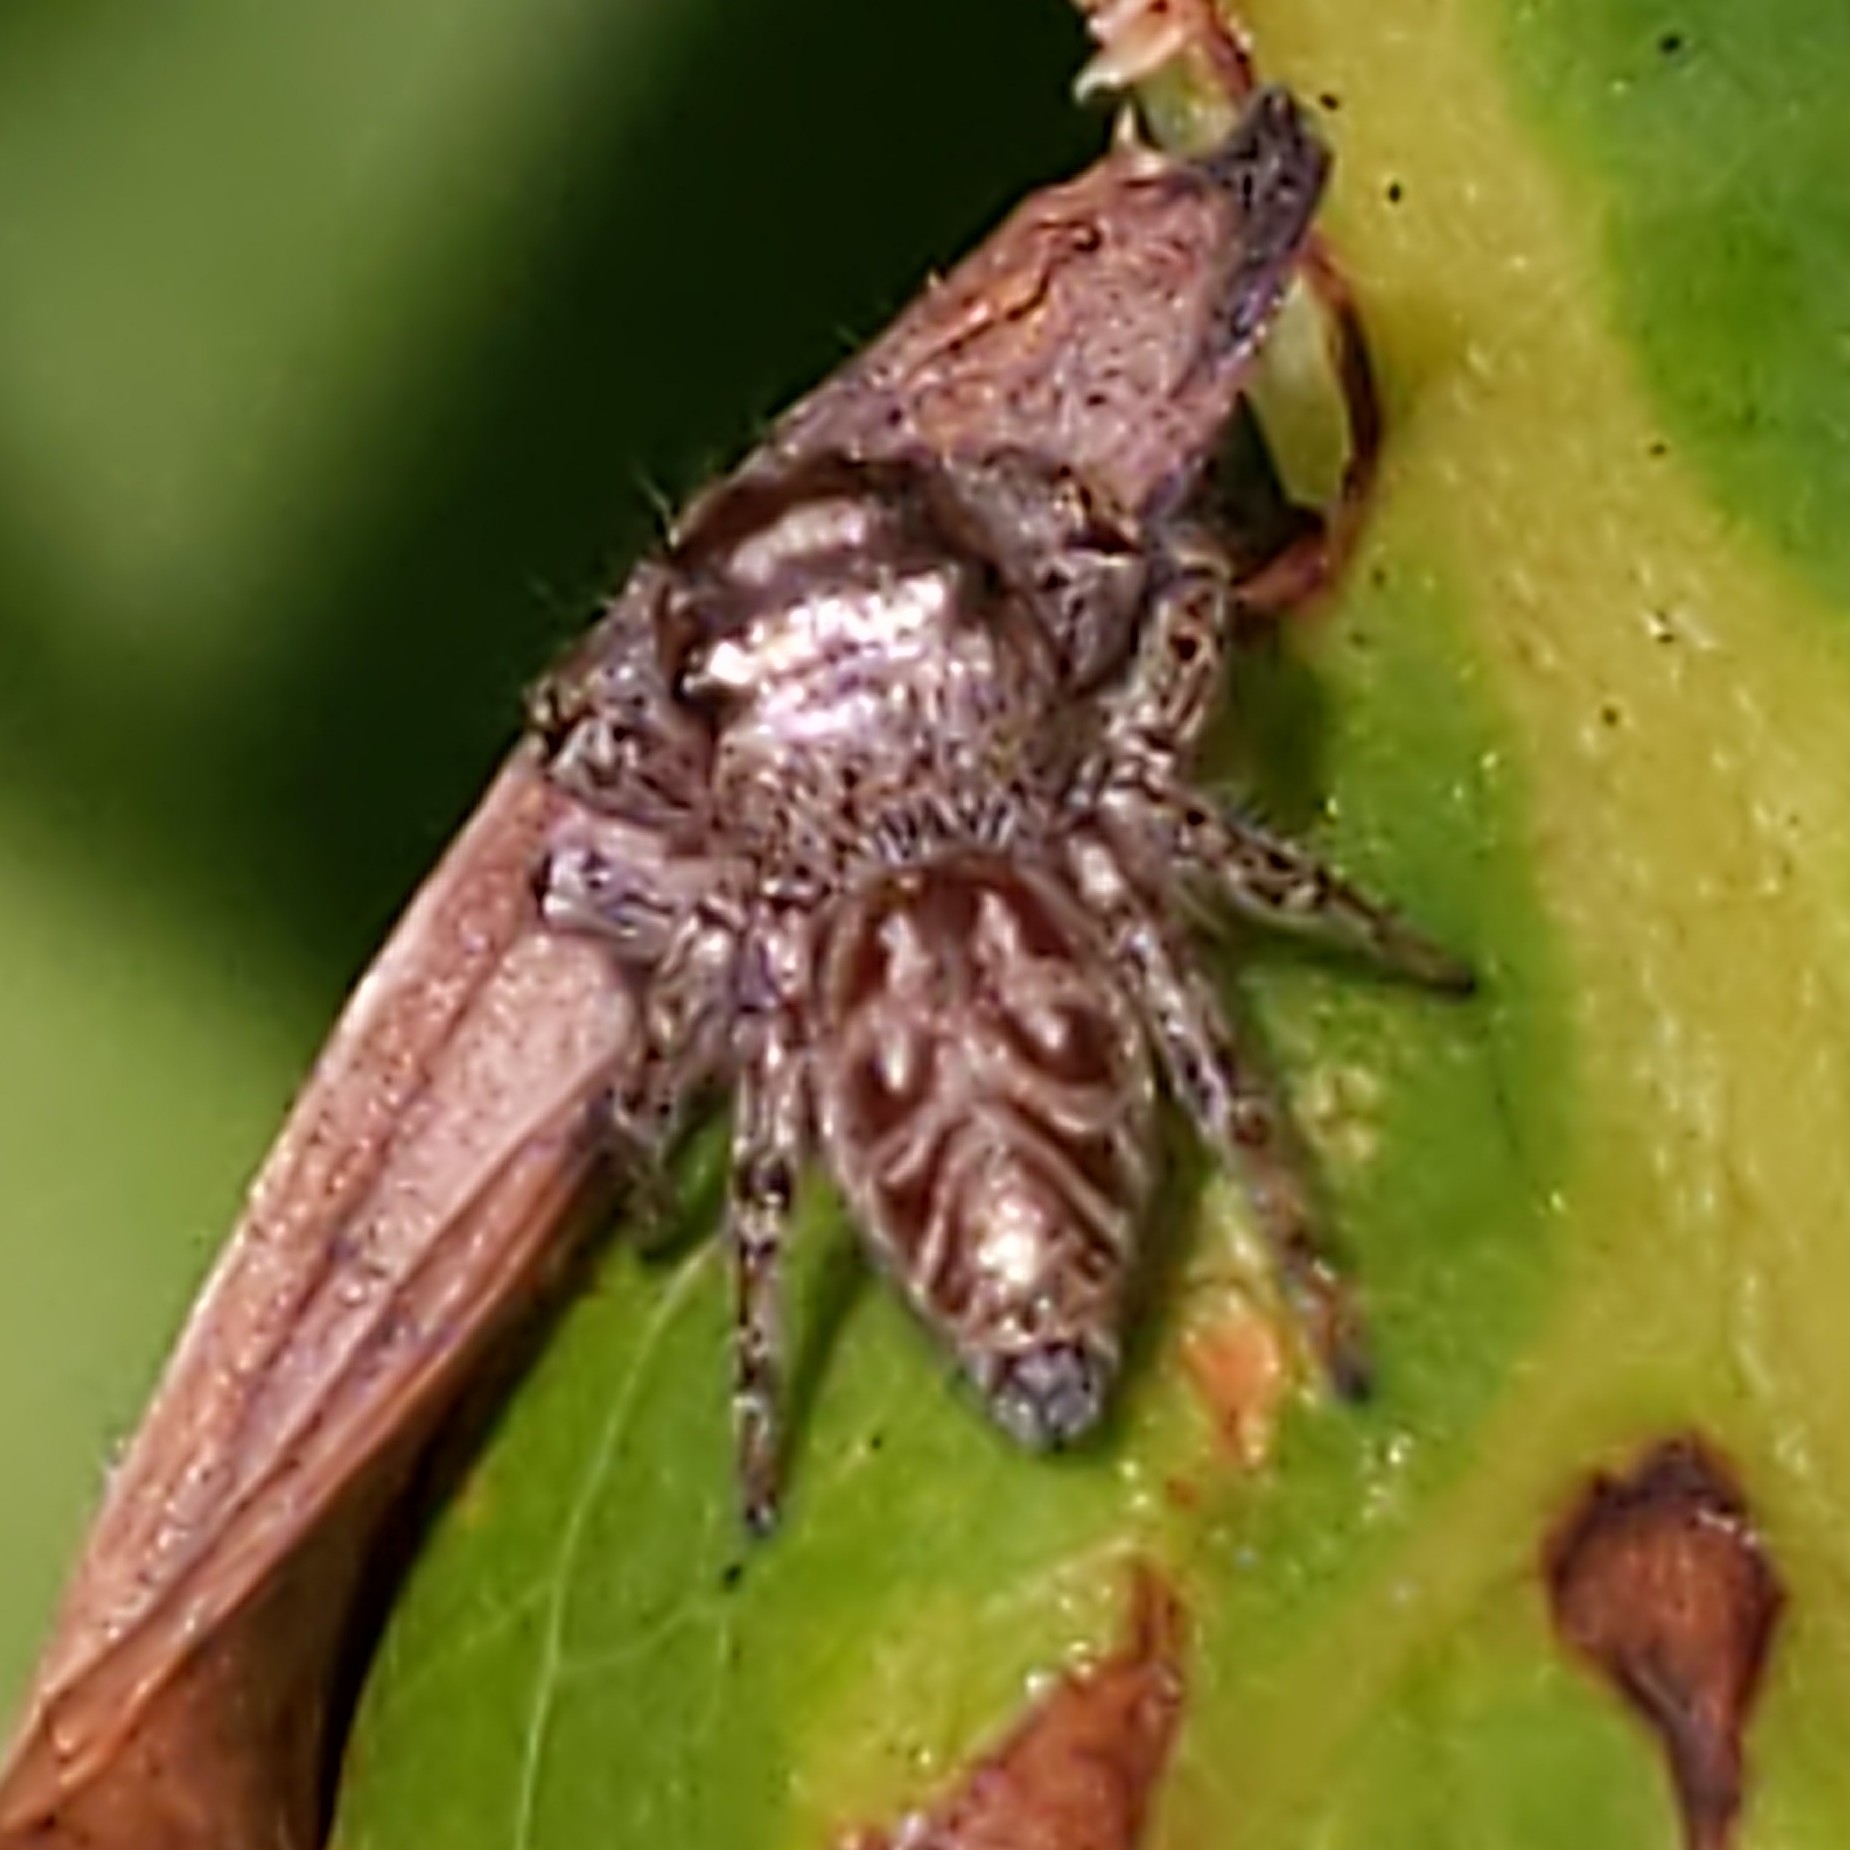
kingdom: Animalia
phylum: Arthropoda
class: Arachnida
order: Araneae
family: Salticidae
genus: Eris
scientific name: Eris militaris
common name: Bronze jumper
